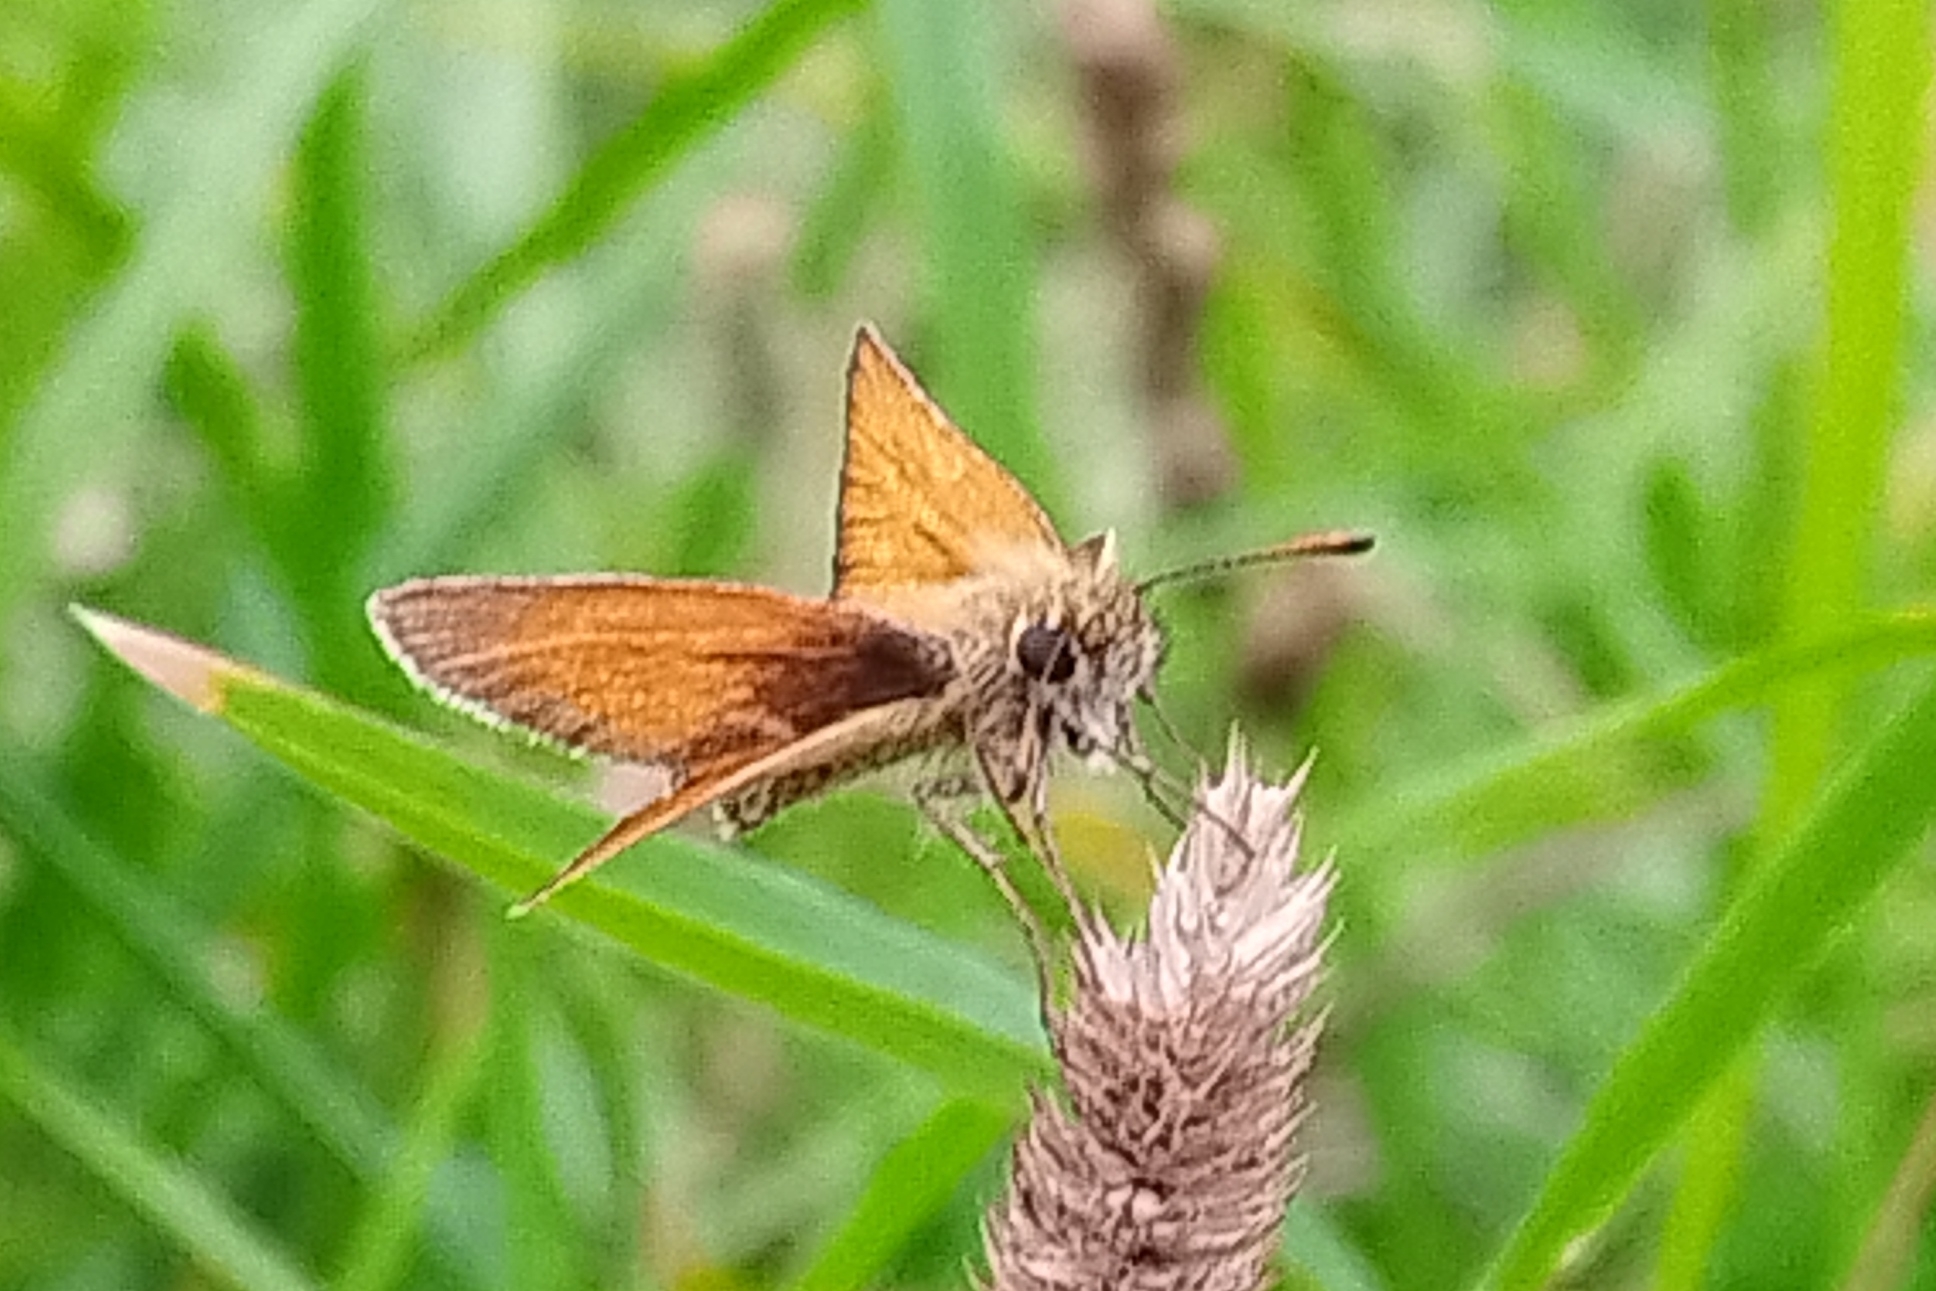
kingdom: Animalia
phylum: Arthropoda
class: Insecta
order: Lepidoptera
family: Hesperiidae
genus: Thymelicus
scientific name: Thymelicus lineola
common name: Essex skipper
